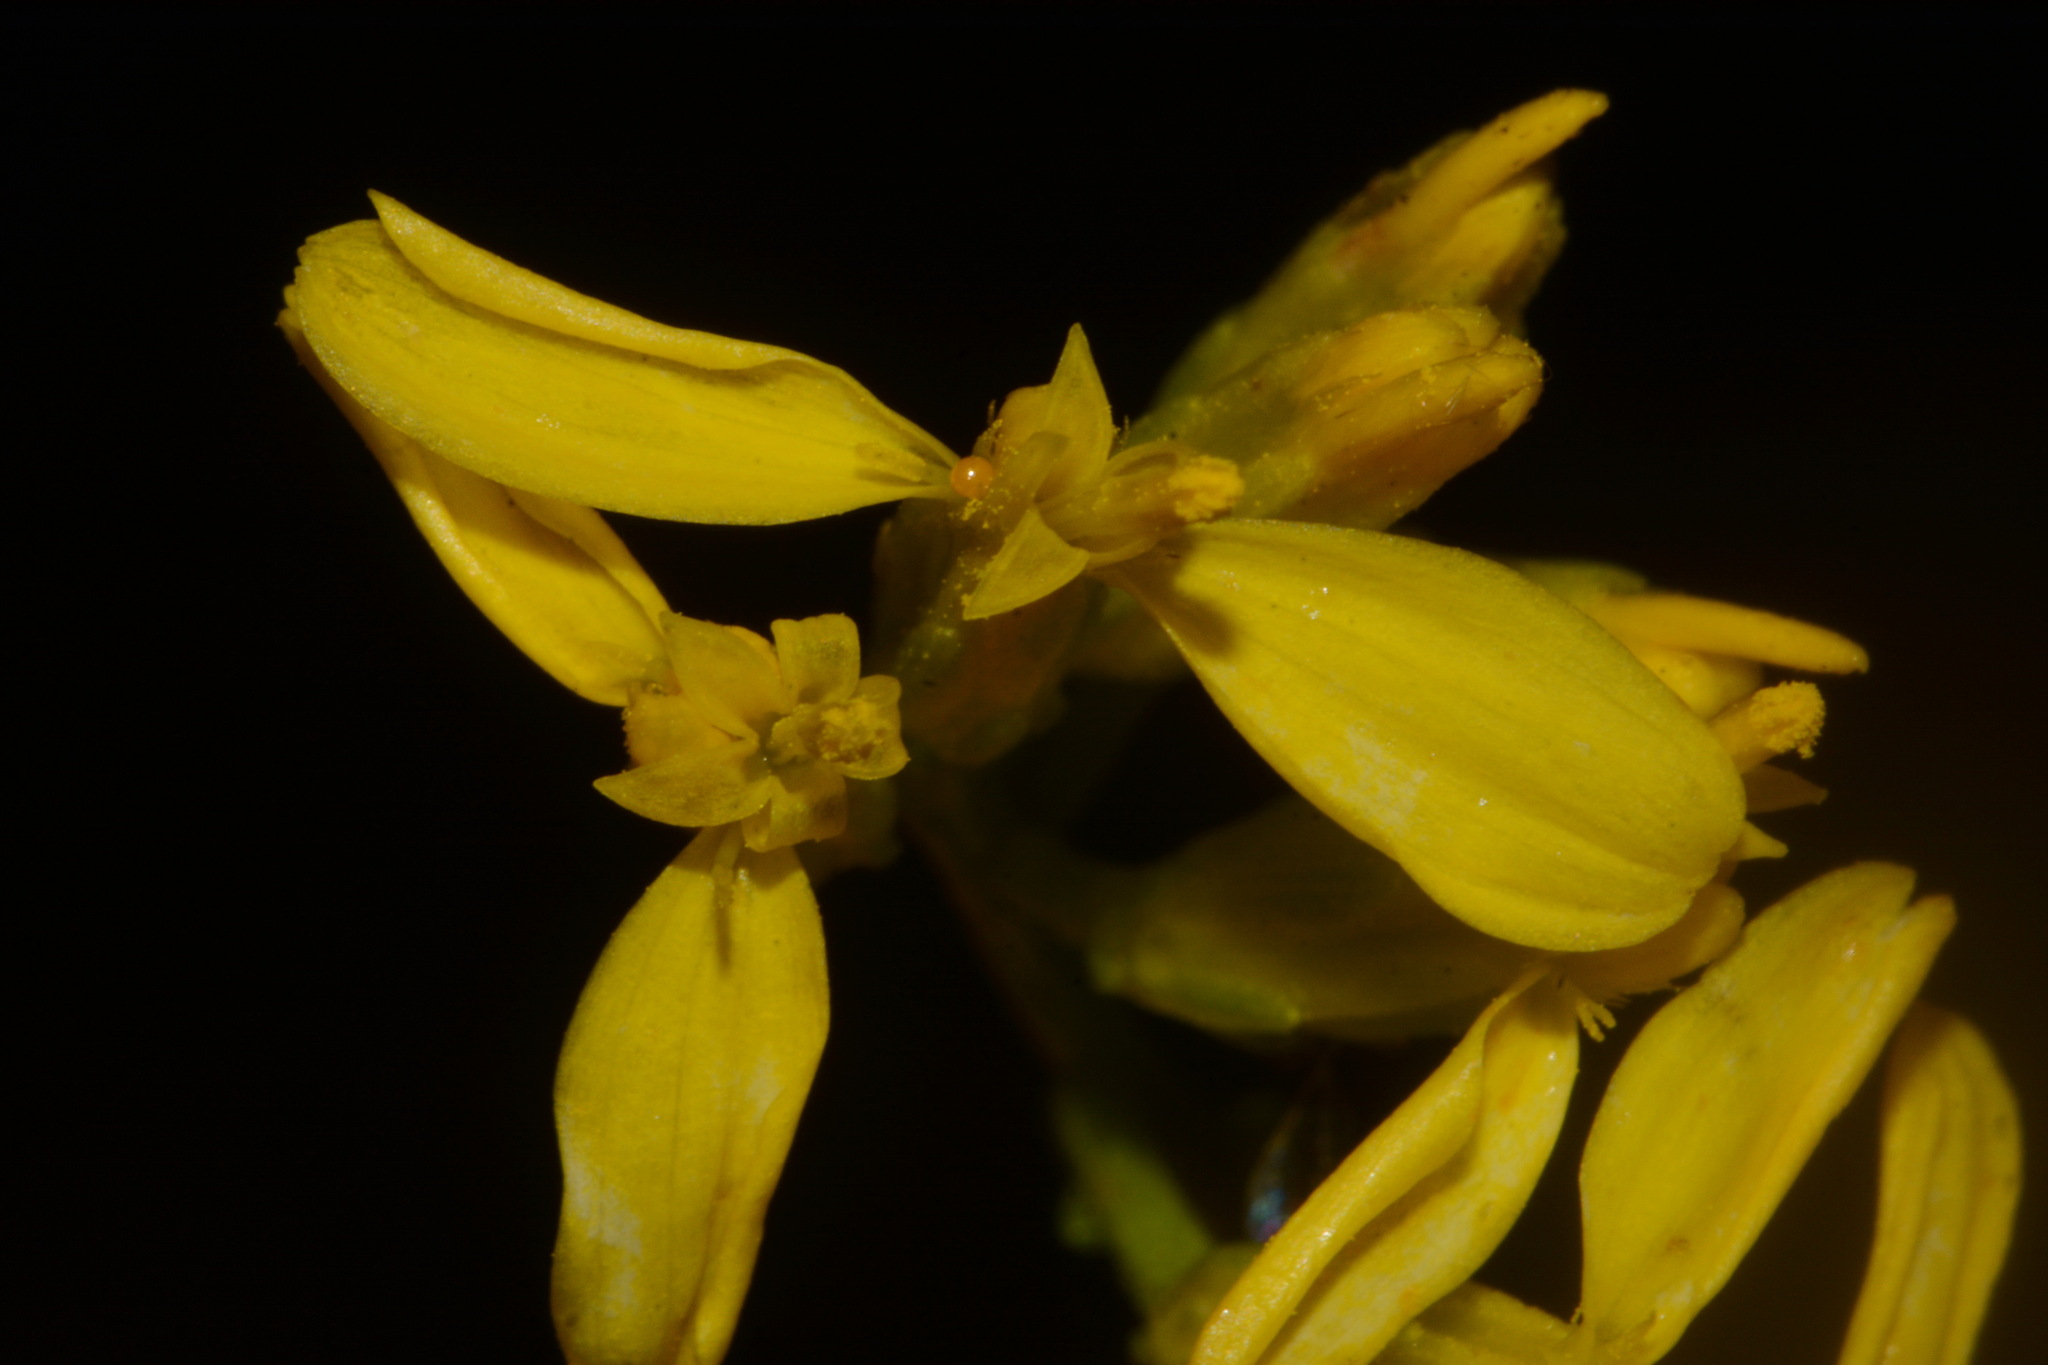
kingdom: Plantae
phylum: Tracheophyta
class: Magnoliopsida
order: Asterales
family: Asteraceae
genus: Chrysoma
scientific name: Chrysoma pauciflosculosa
